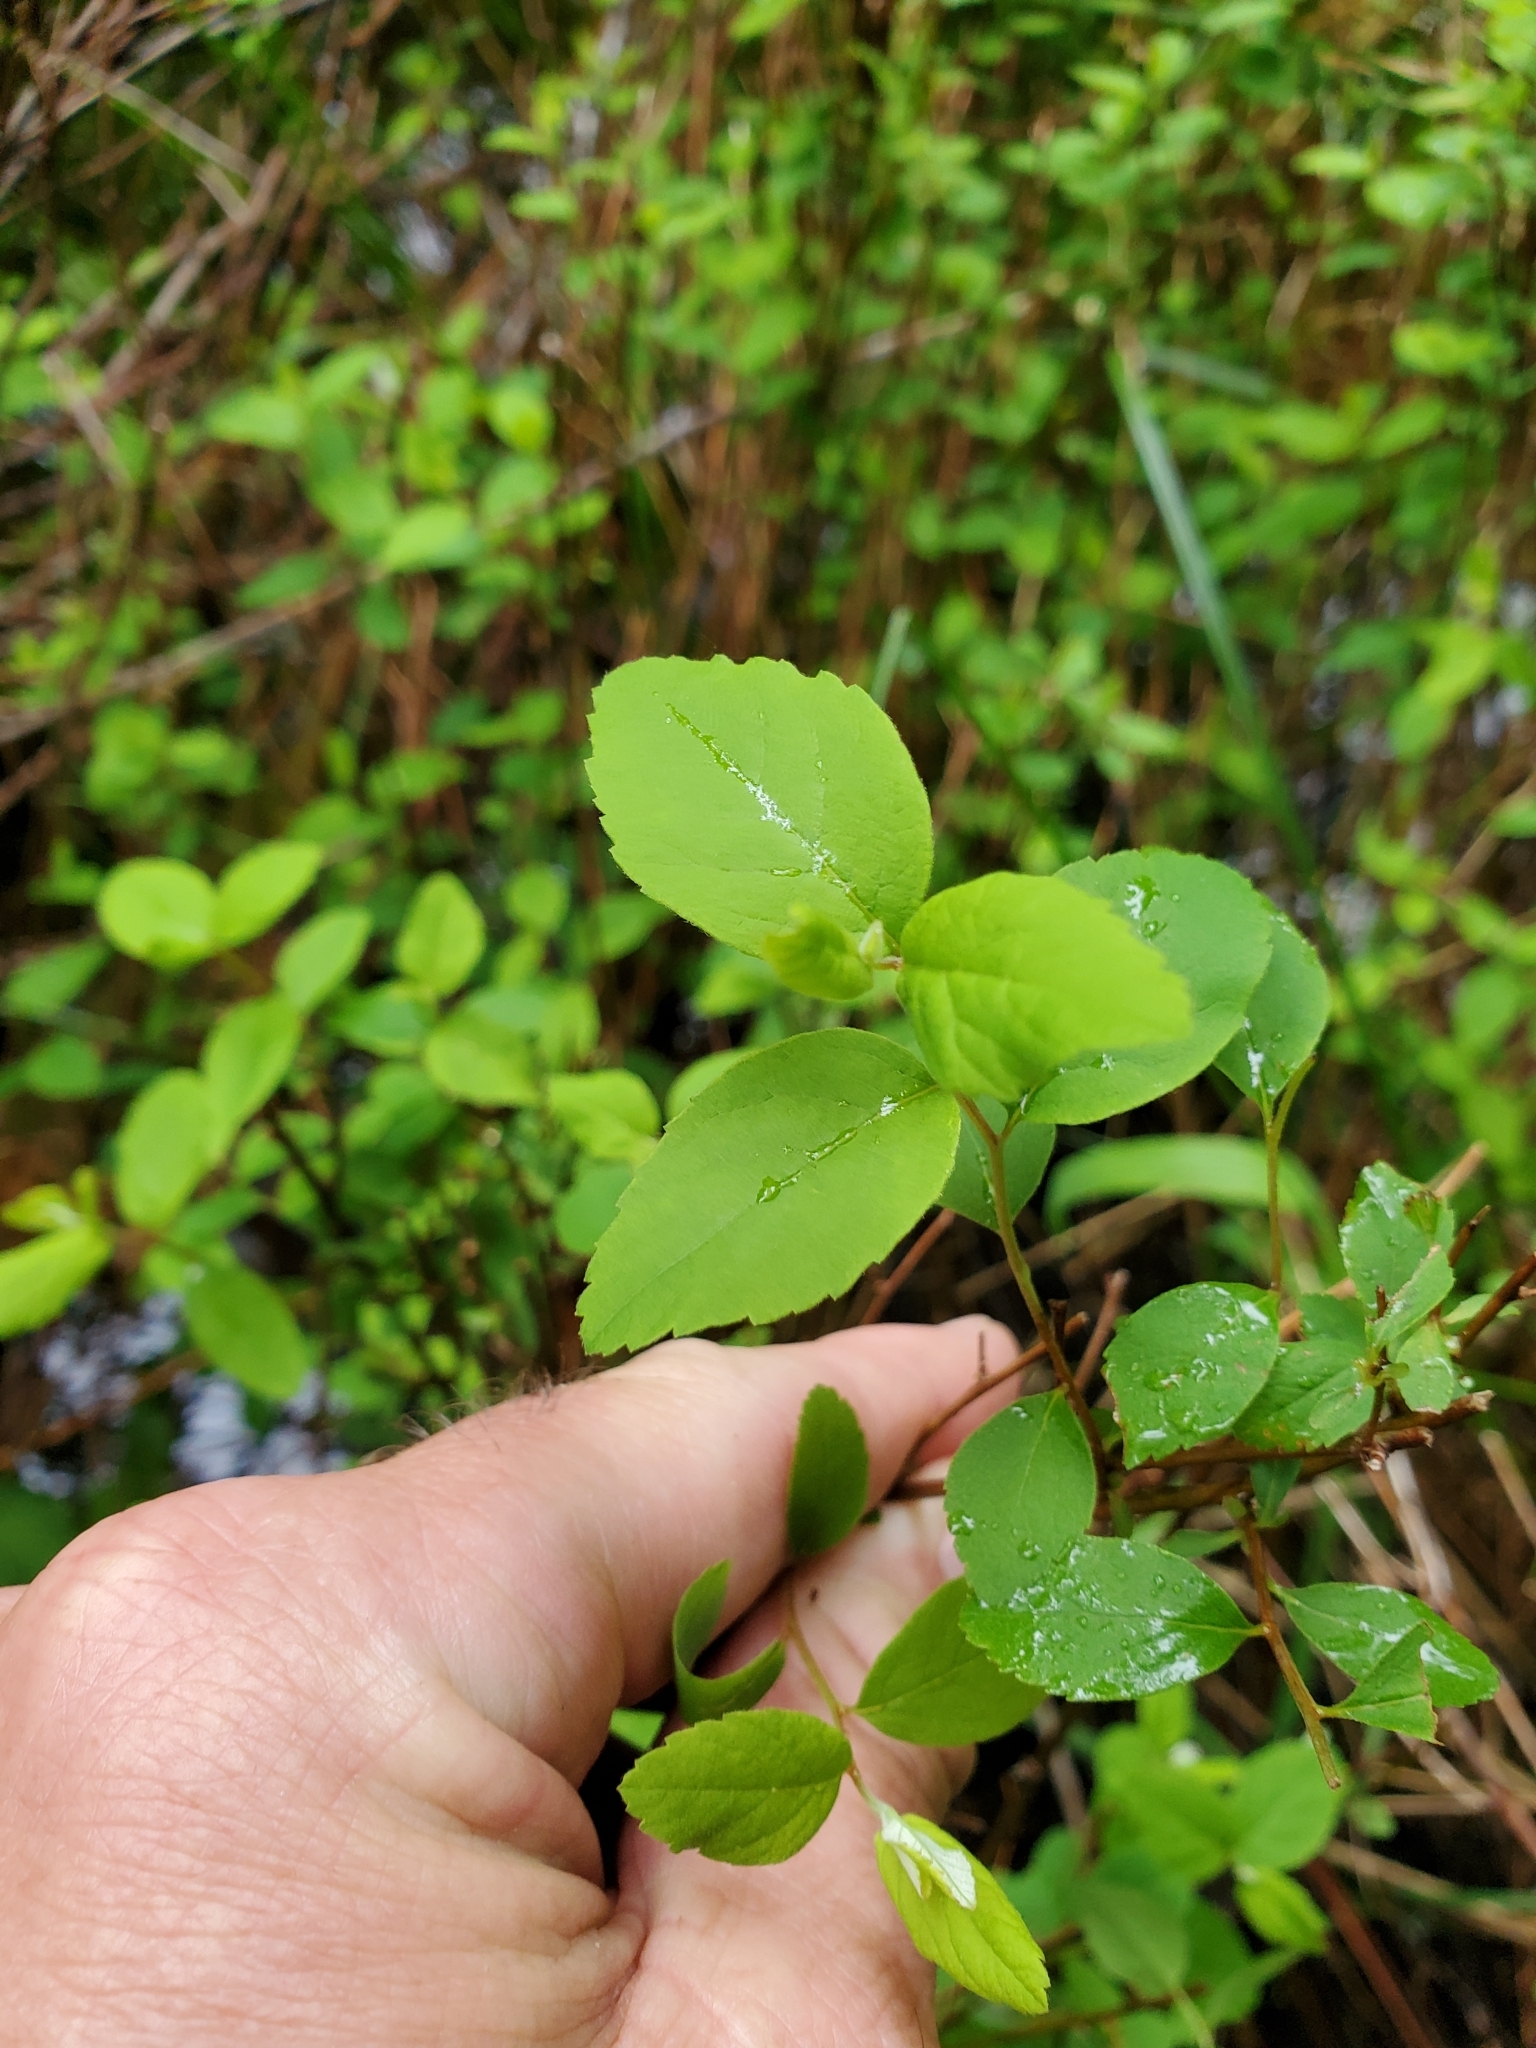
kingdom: Plantae
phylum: Tracheophyta
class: Magnoliopsida
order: Rosales
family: Rosaceae
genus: Spiraea
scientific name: Spiraea douglasii
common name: Steeplebush
